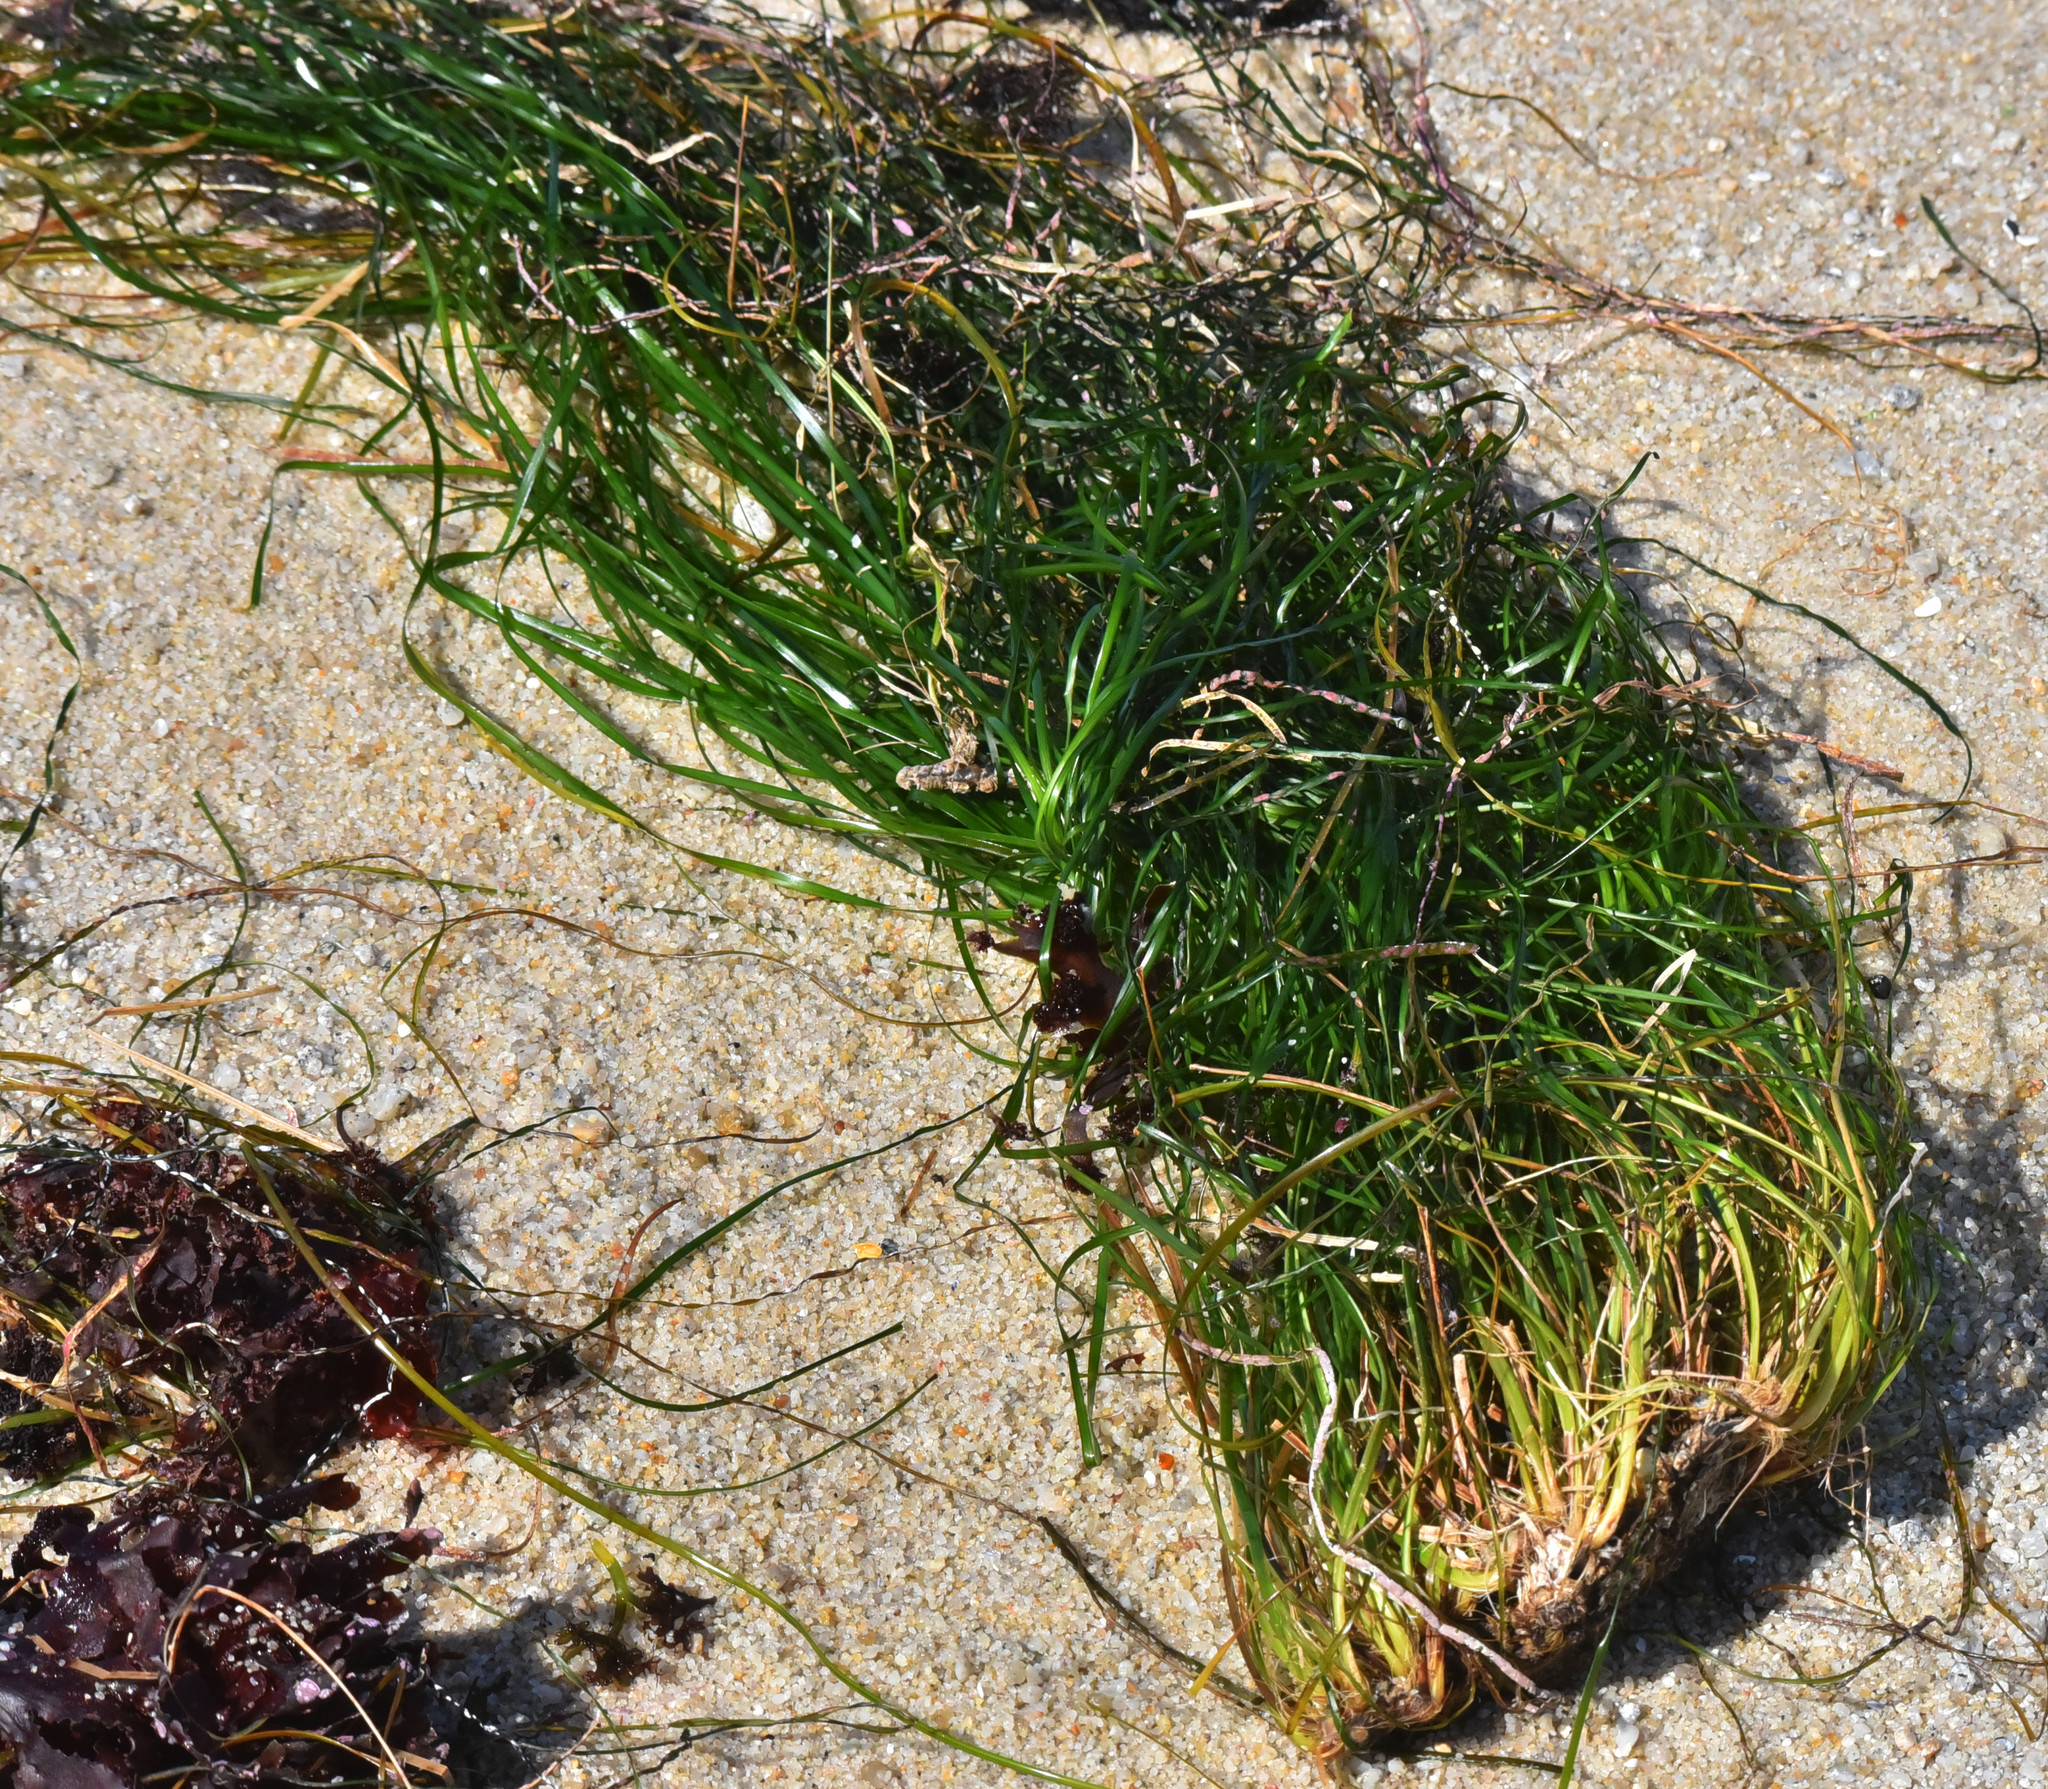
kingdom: Plantae
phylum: Tracheophyta
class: Liliopsida
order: Alismatales
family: Zosteraceae
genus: Phyllospadix
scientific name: Phyllospadix scouleri
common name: Species code: ps
